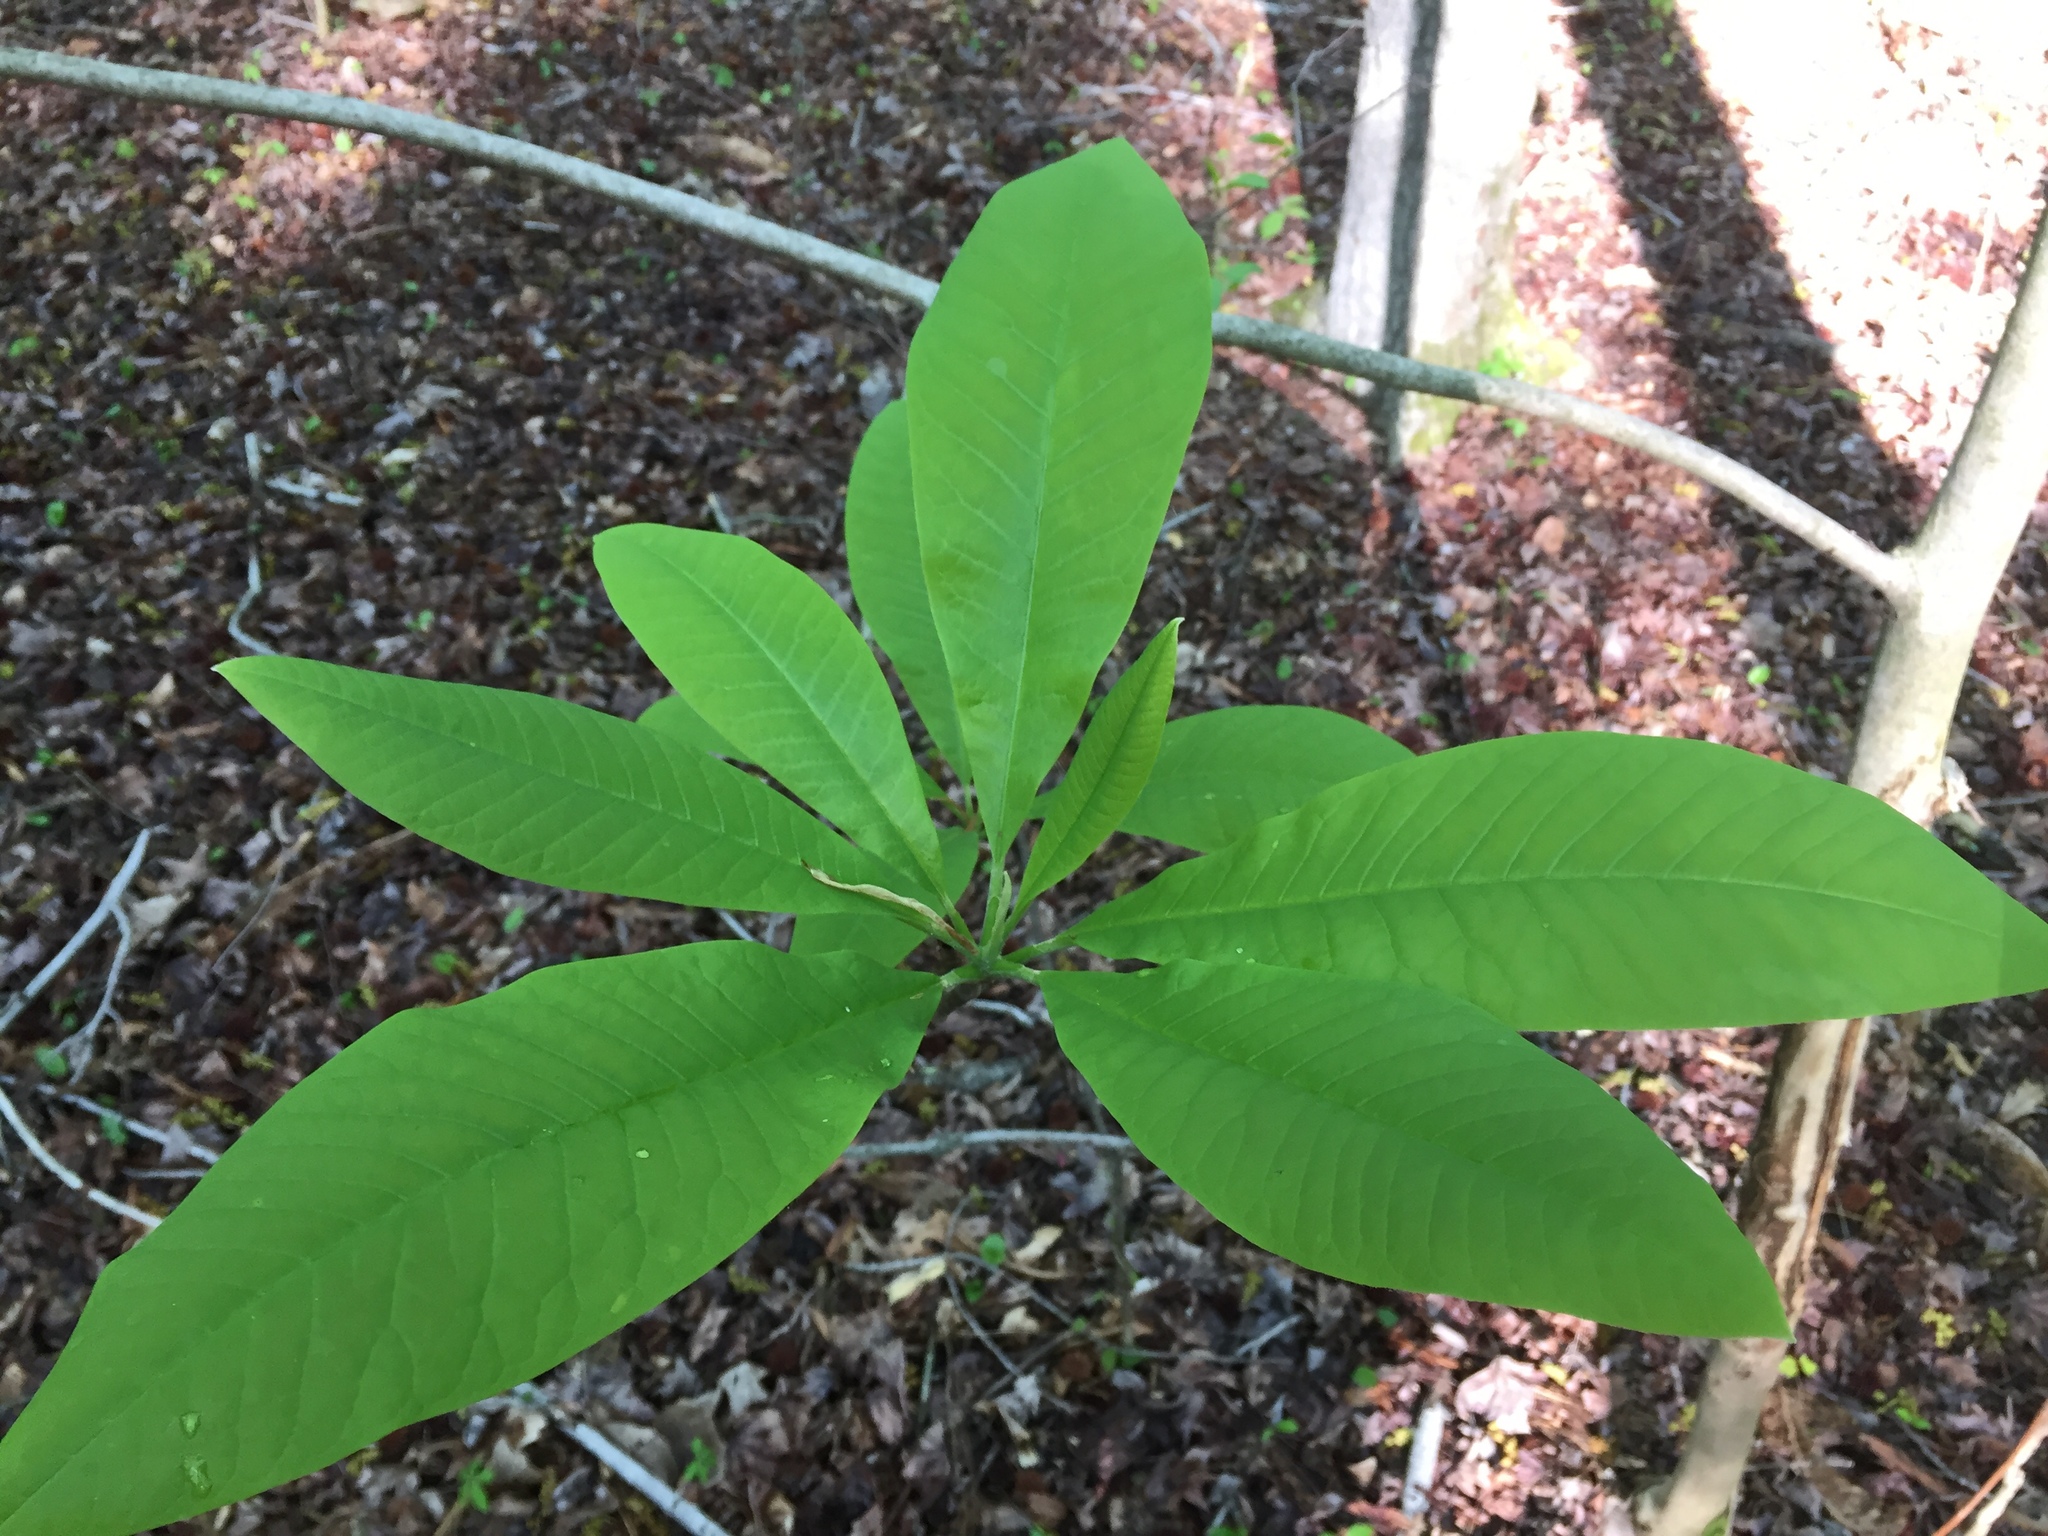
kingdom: Plantae
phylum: Tracheophyta
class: Magnoliopsida
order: Magnoliales
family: Magnoliaceae
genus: Magnolia
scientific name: Magnolia tripetala
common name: Umbrella magnolia
